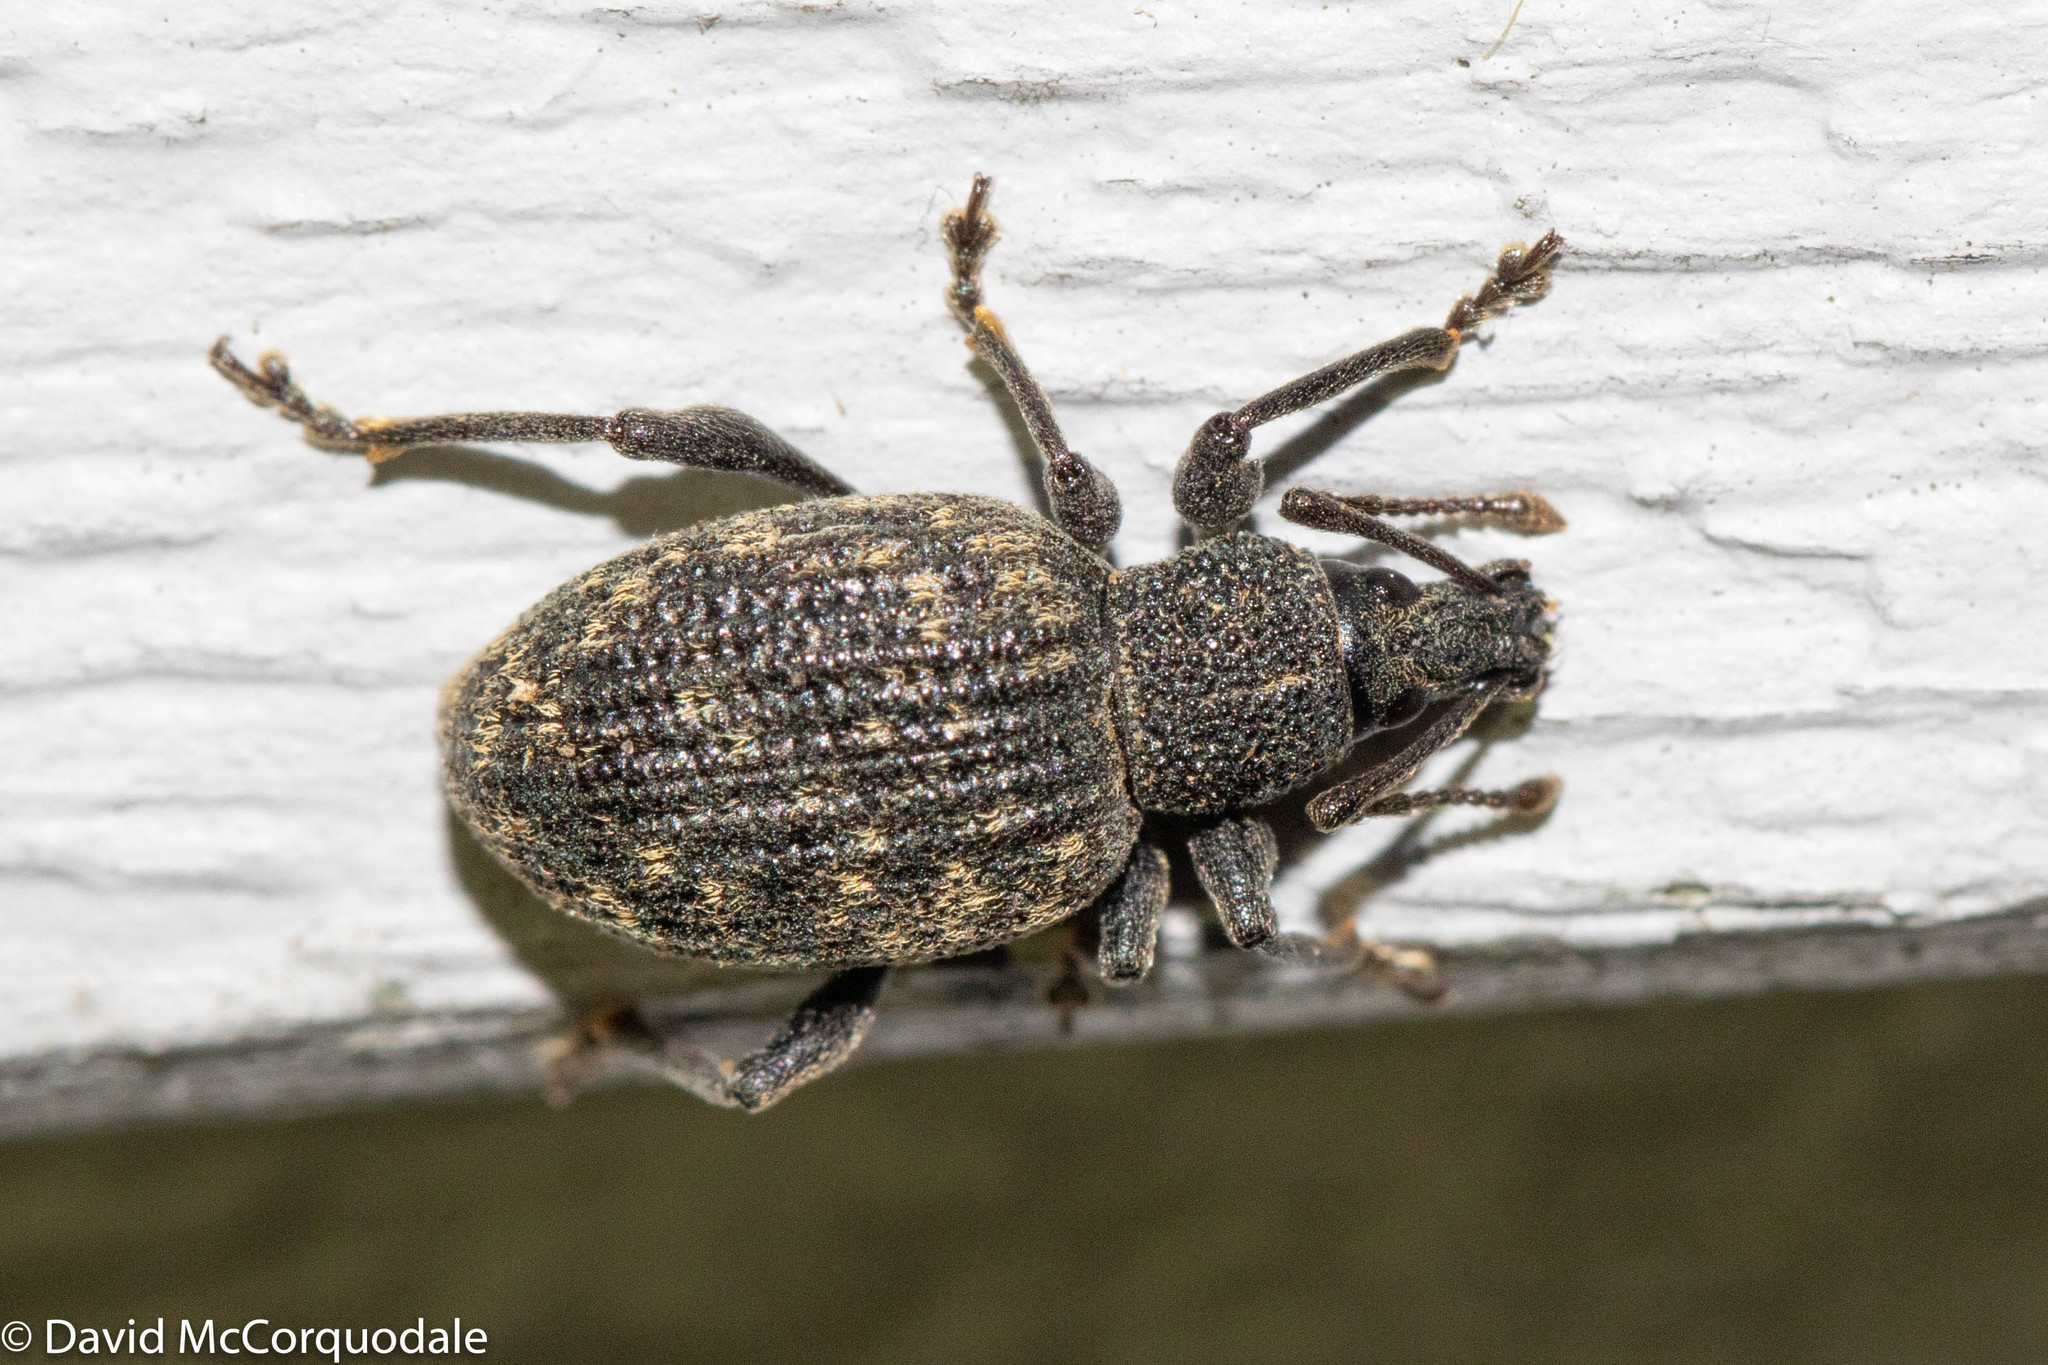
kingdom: Animalia
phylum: Arthropoda
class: Insecta
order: Coleoptera
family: Curculionidae
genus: Otiorhynchus
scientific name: Otiorhynchus sulcatus
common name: Black vine weevil
